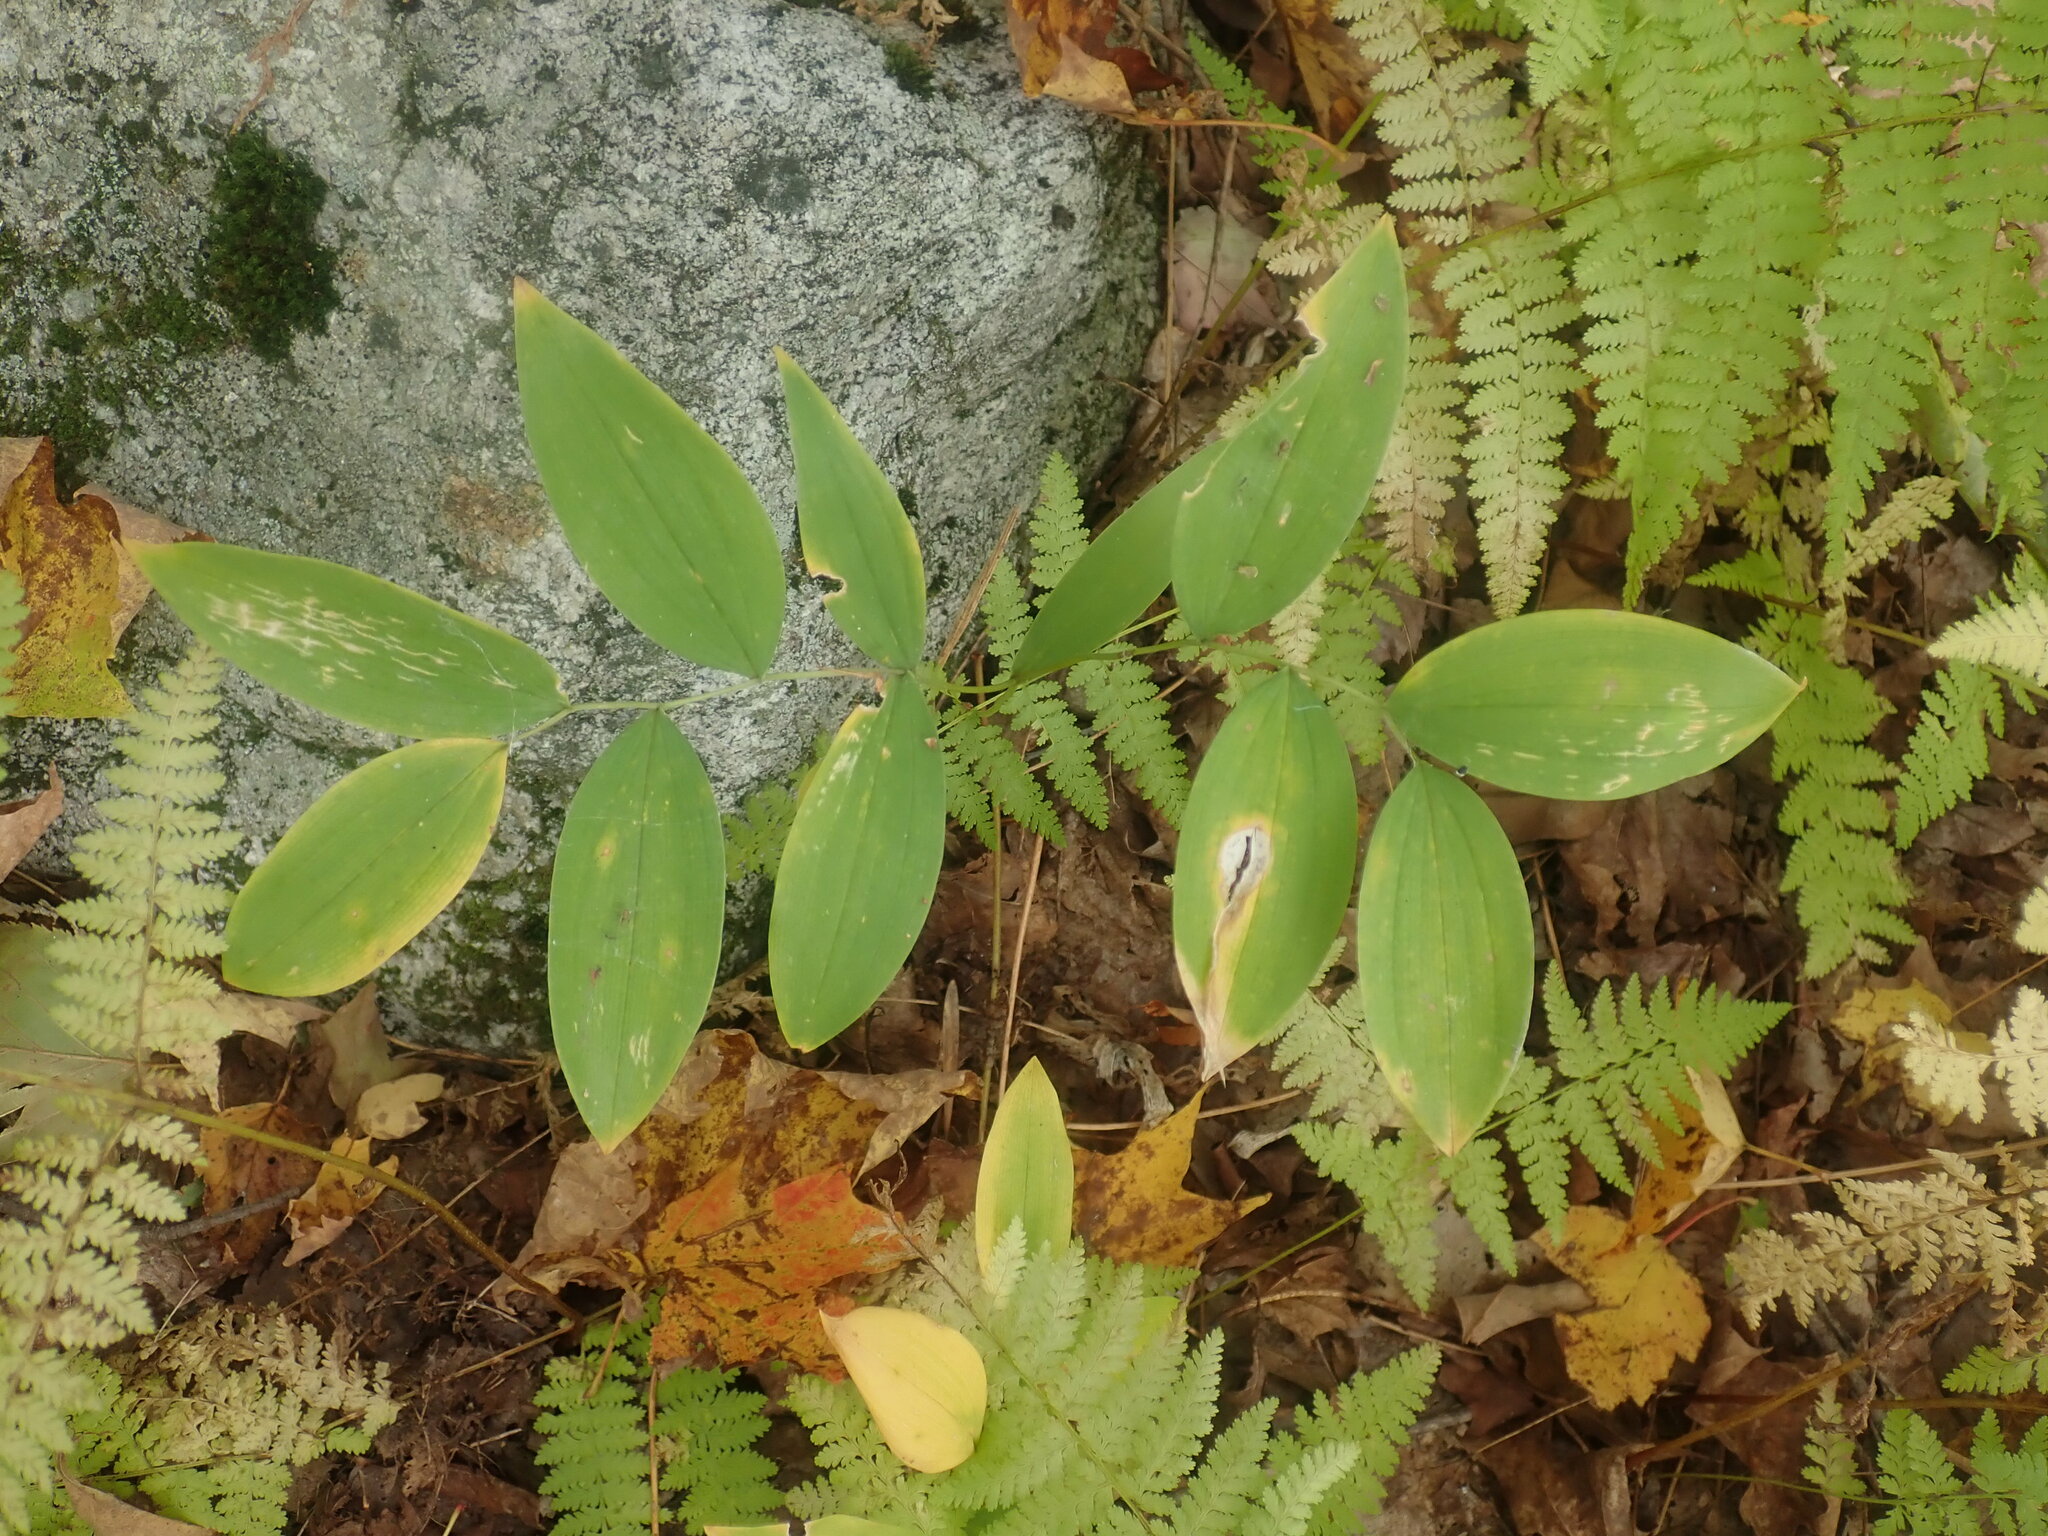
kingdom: Plantae
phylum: Tracheophyta
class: Liliopsida
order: Liliales
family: Colchicaceae
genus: Uvularia
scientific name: Uvularia sessilifolia
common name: Straw-lily
